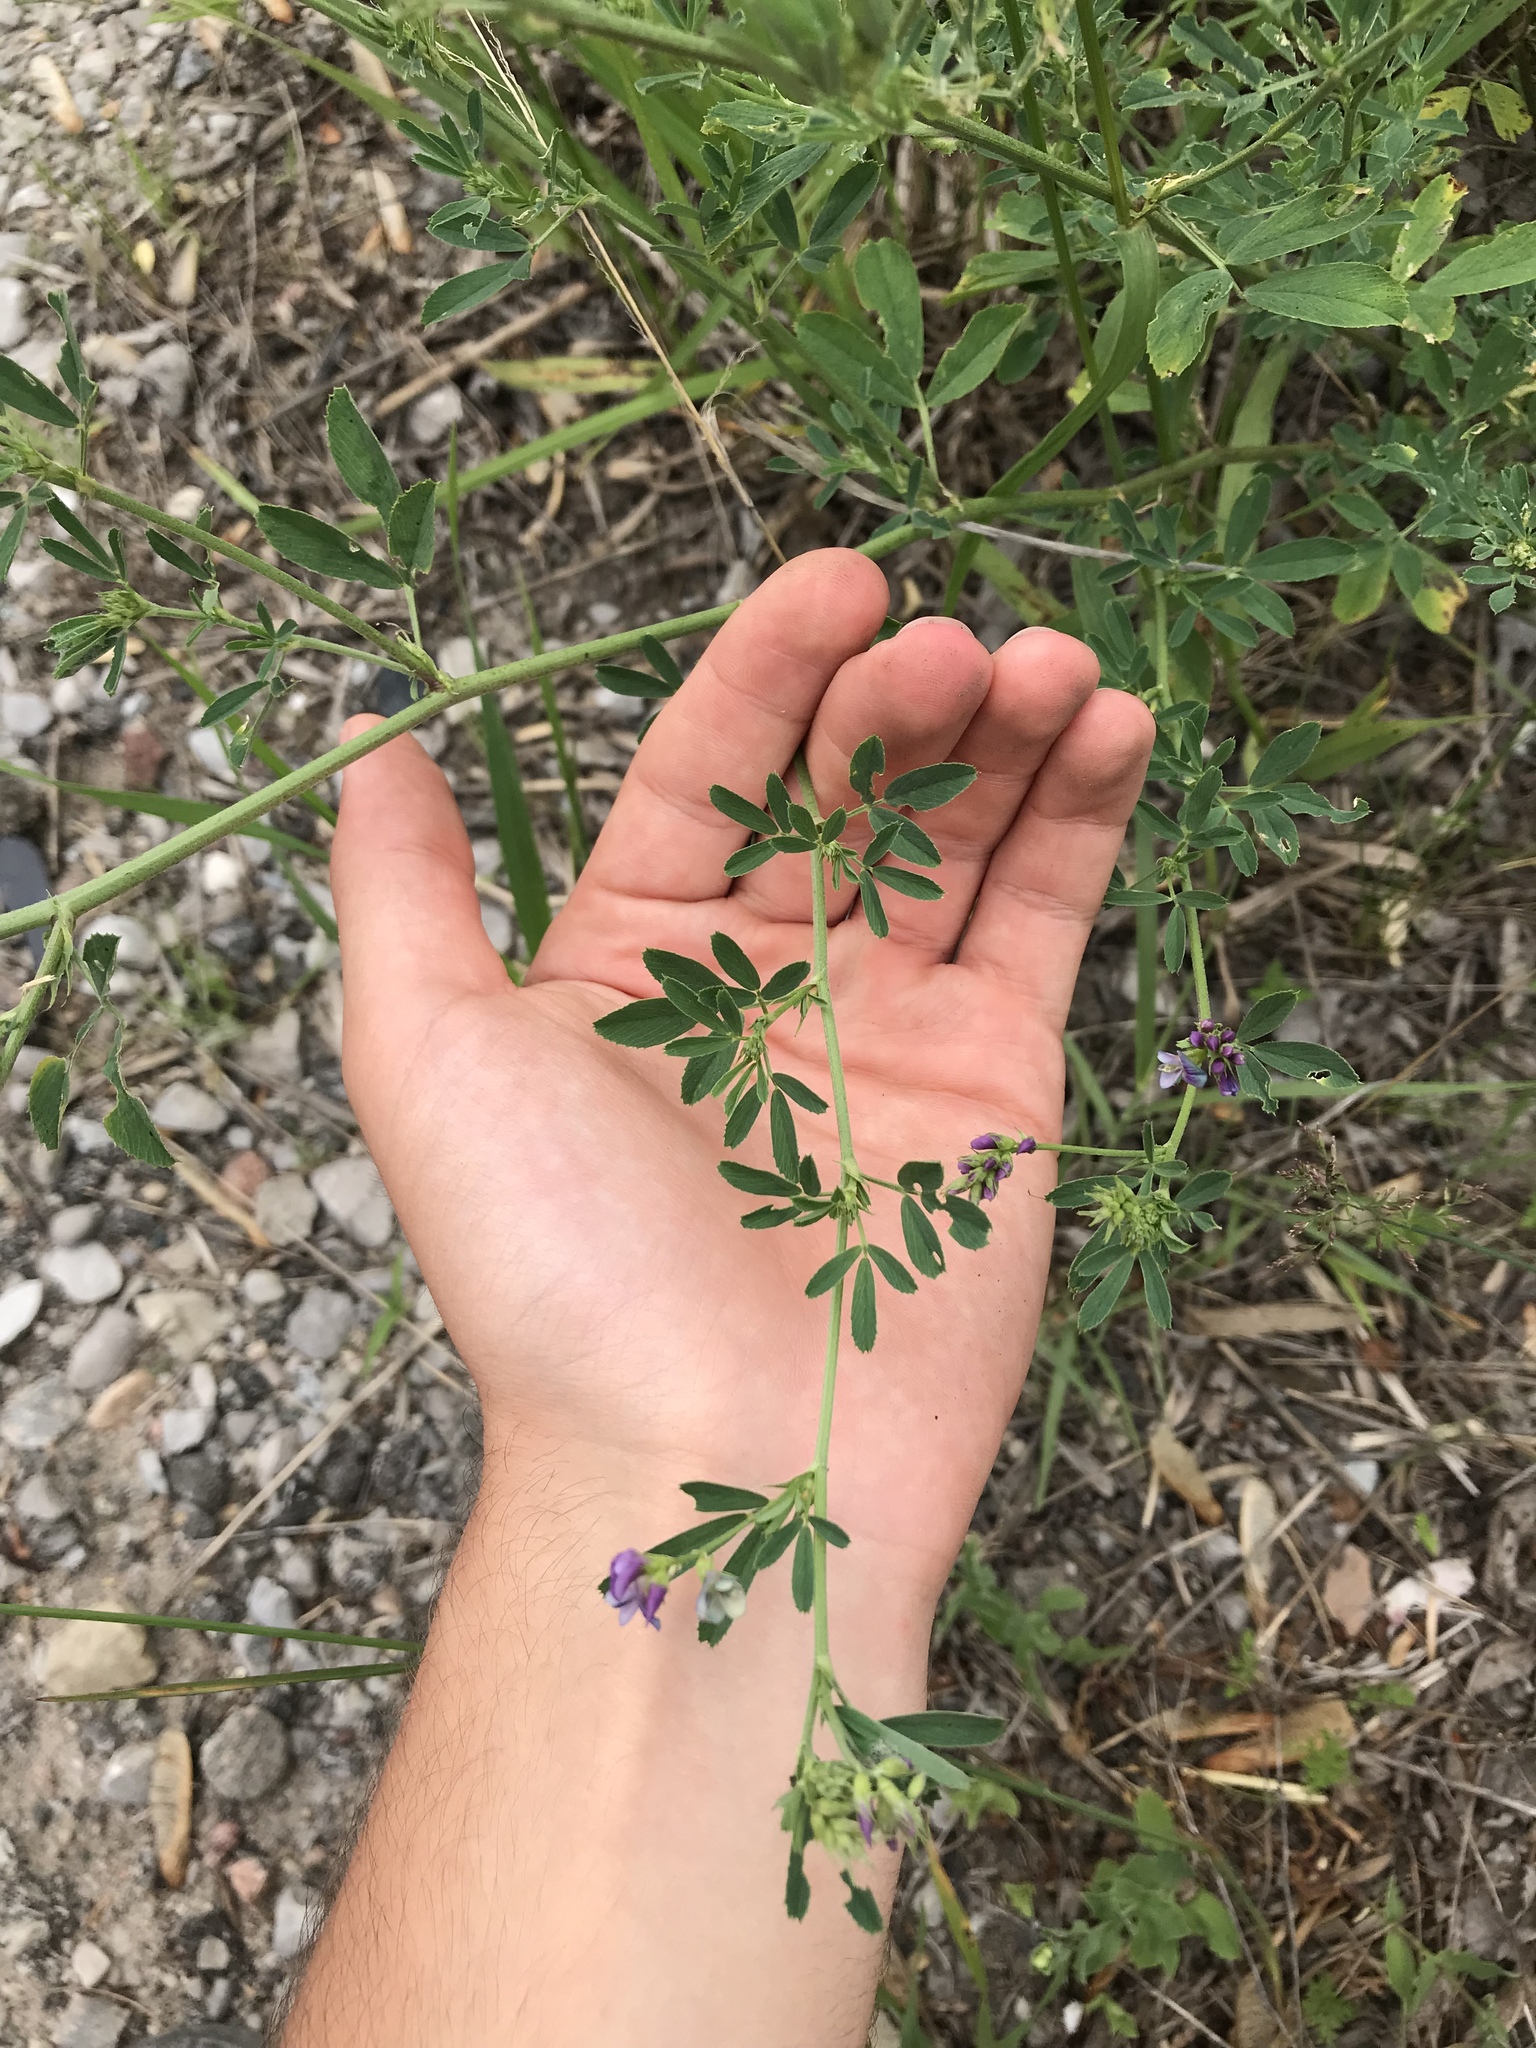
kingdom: Plantae
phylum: Tracheophyta
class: Magnoliopsida
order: Fabales
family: Fabaceae
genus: Medicago
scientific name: Medicago sativa
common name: Alfalfa
